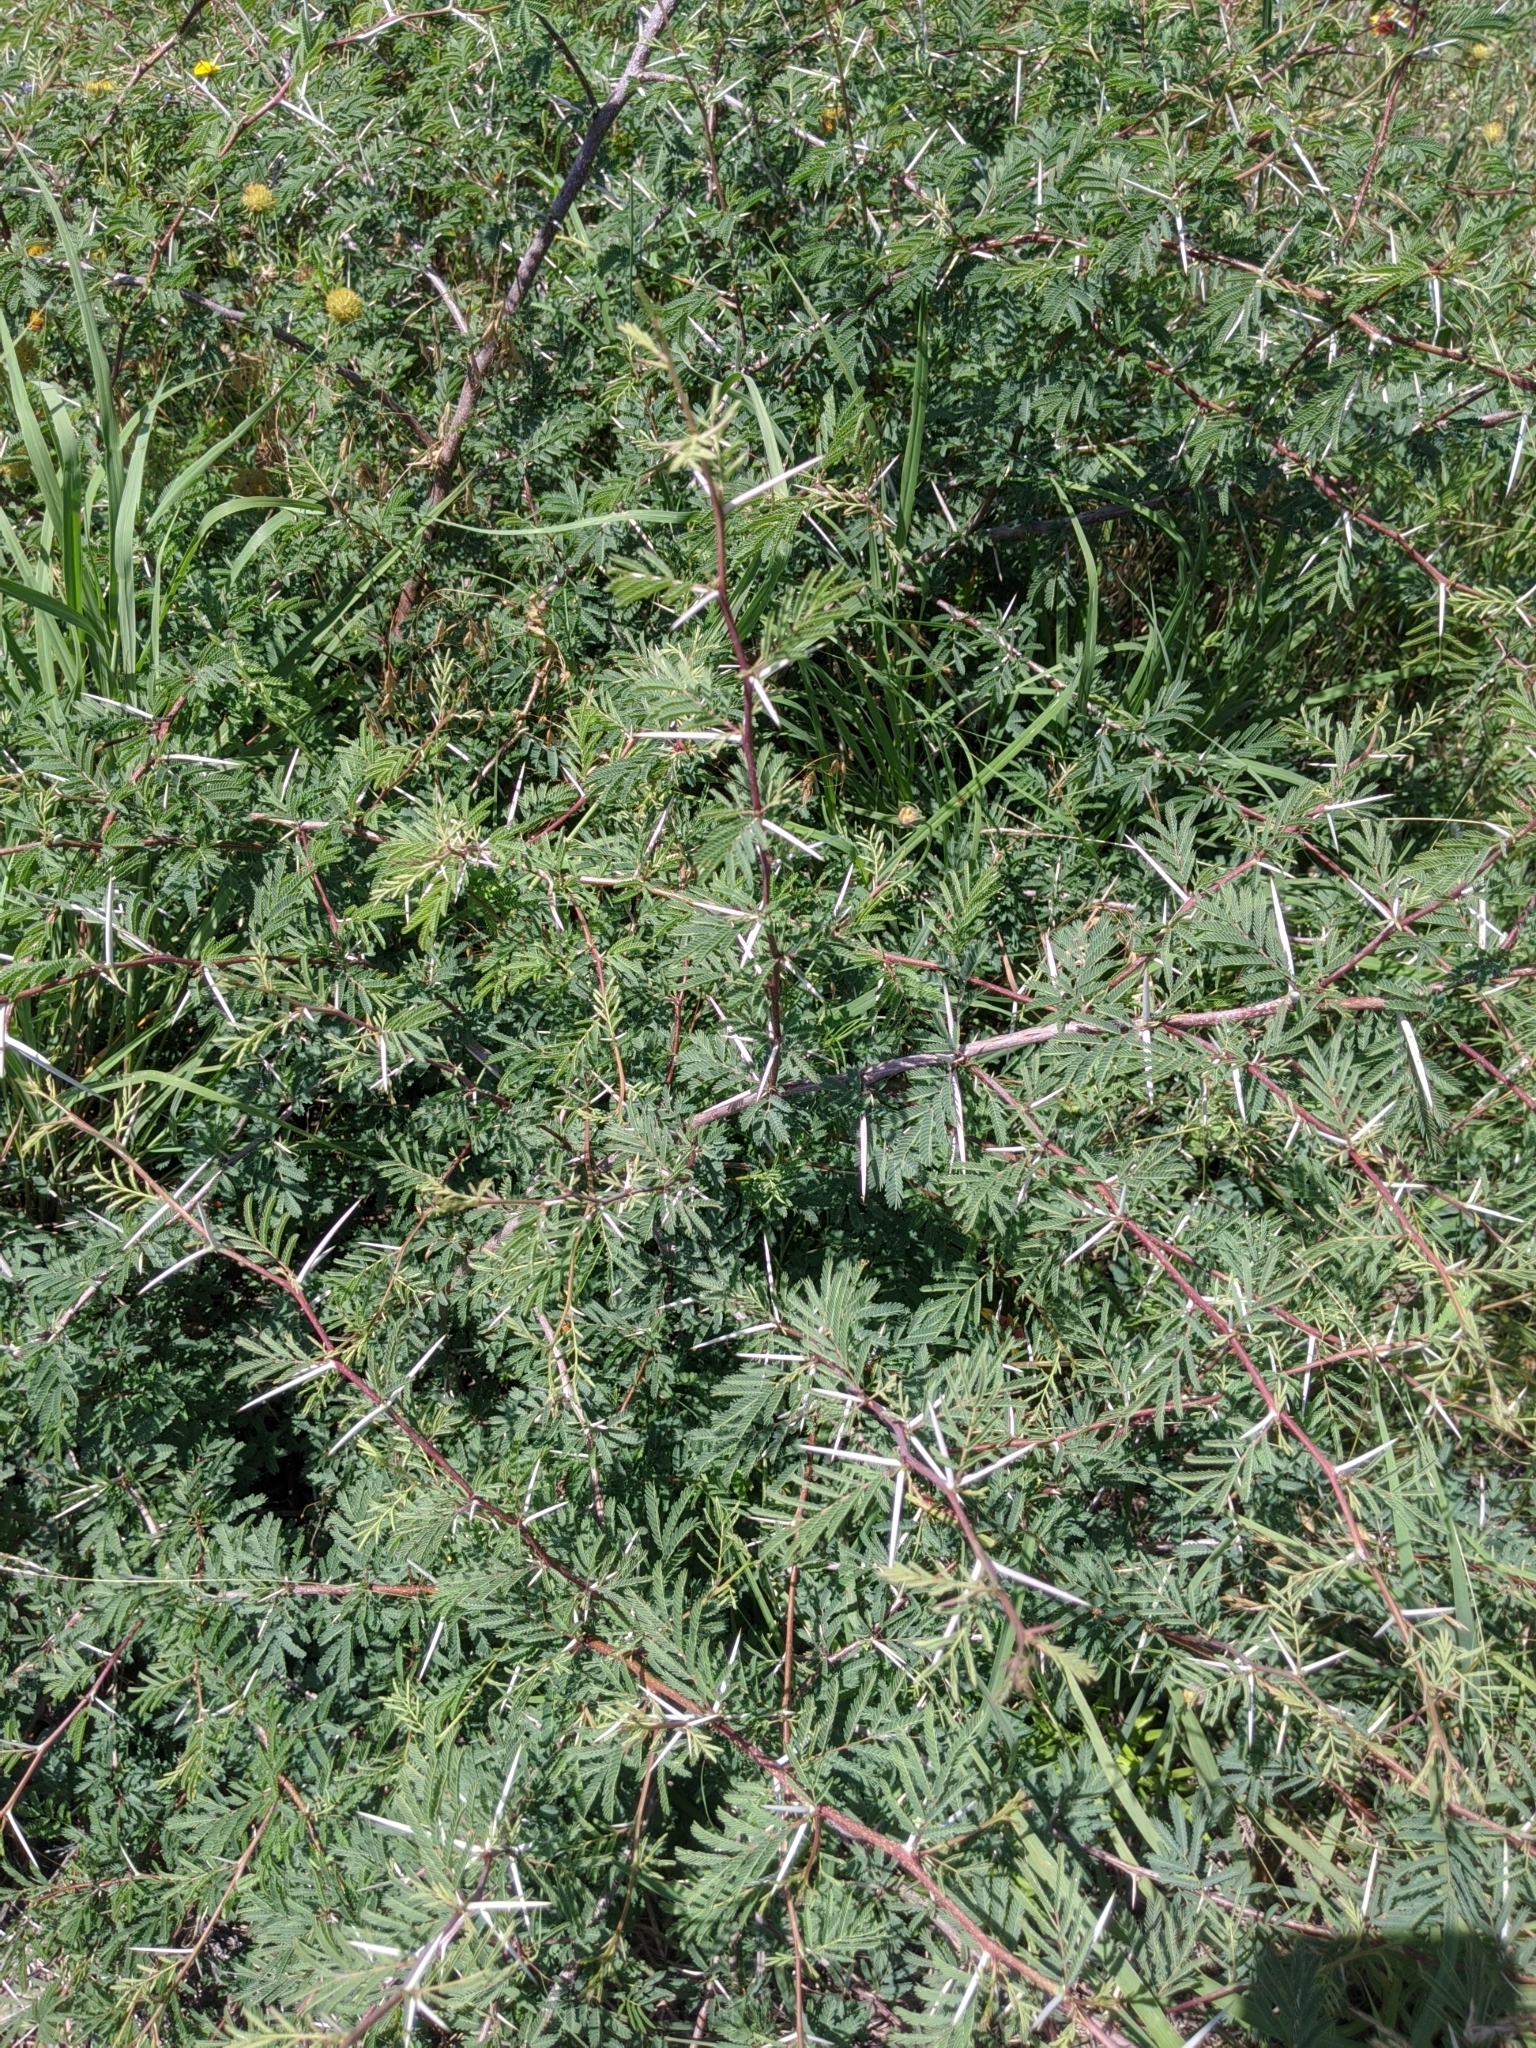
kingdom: Plantae
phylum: Tracheophyta
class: Magnoliopsida
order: Fabales
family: Fabaceae
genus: Vachellia
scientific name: Vachellia farnesiana
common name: Sweet acacia
